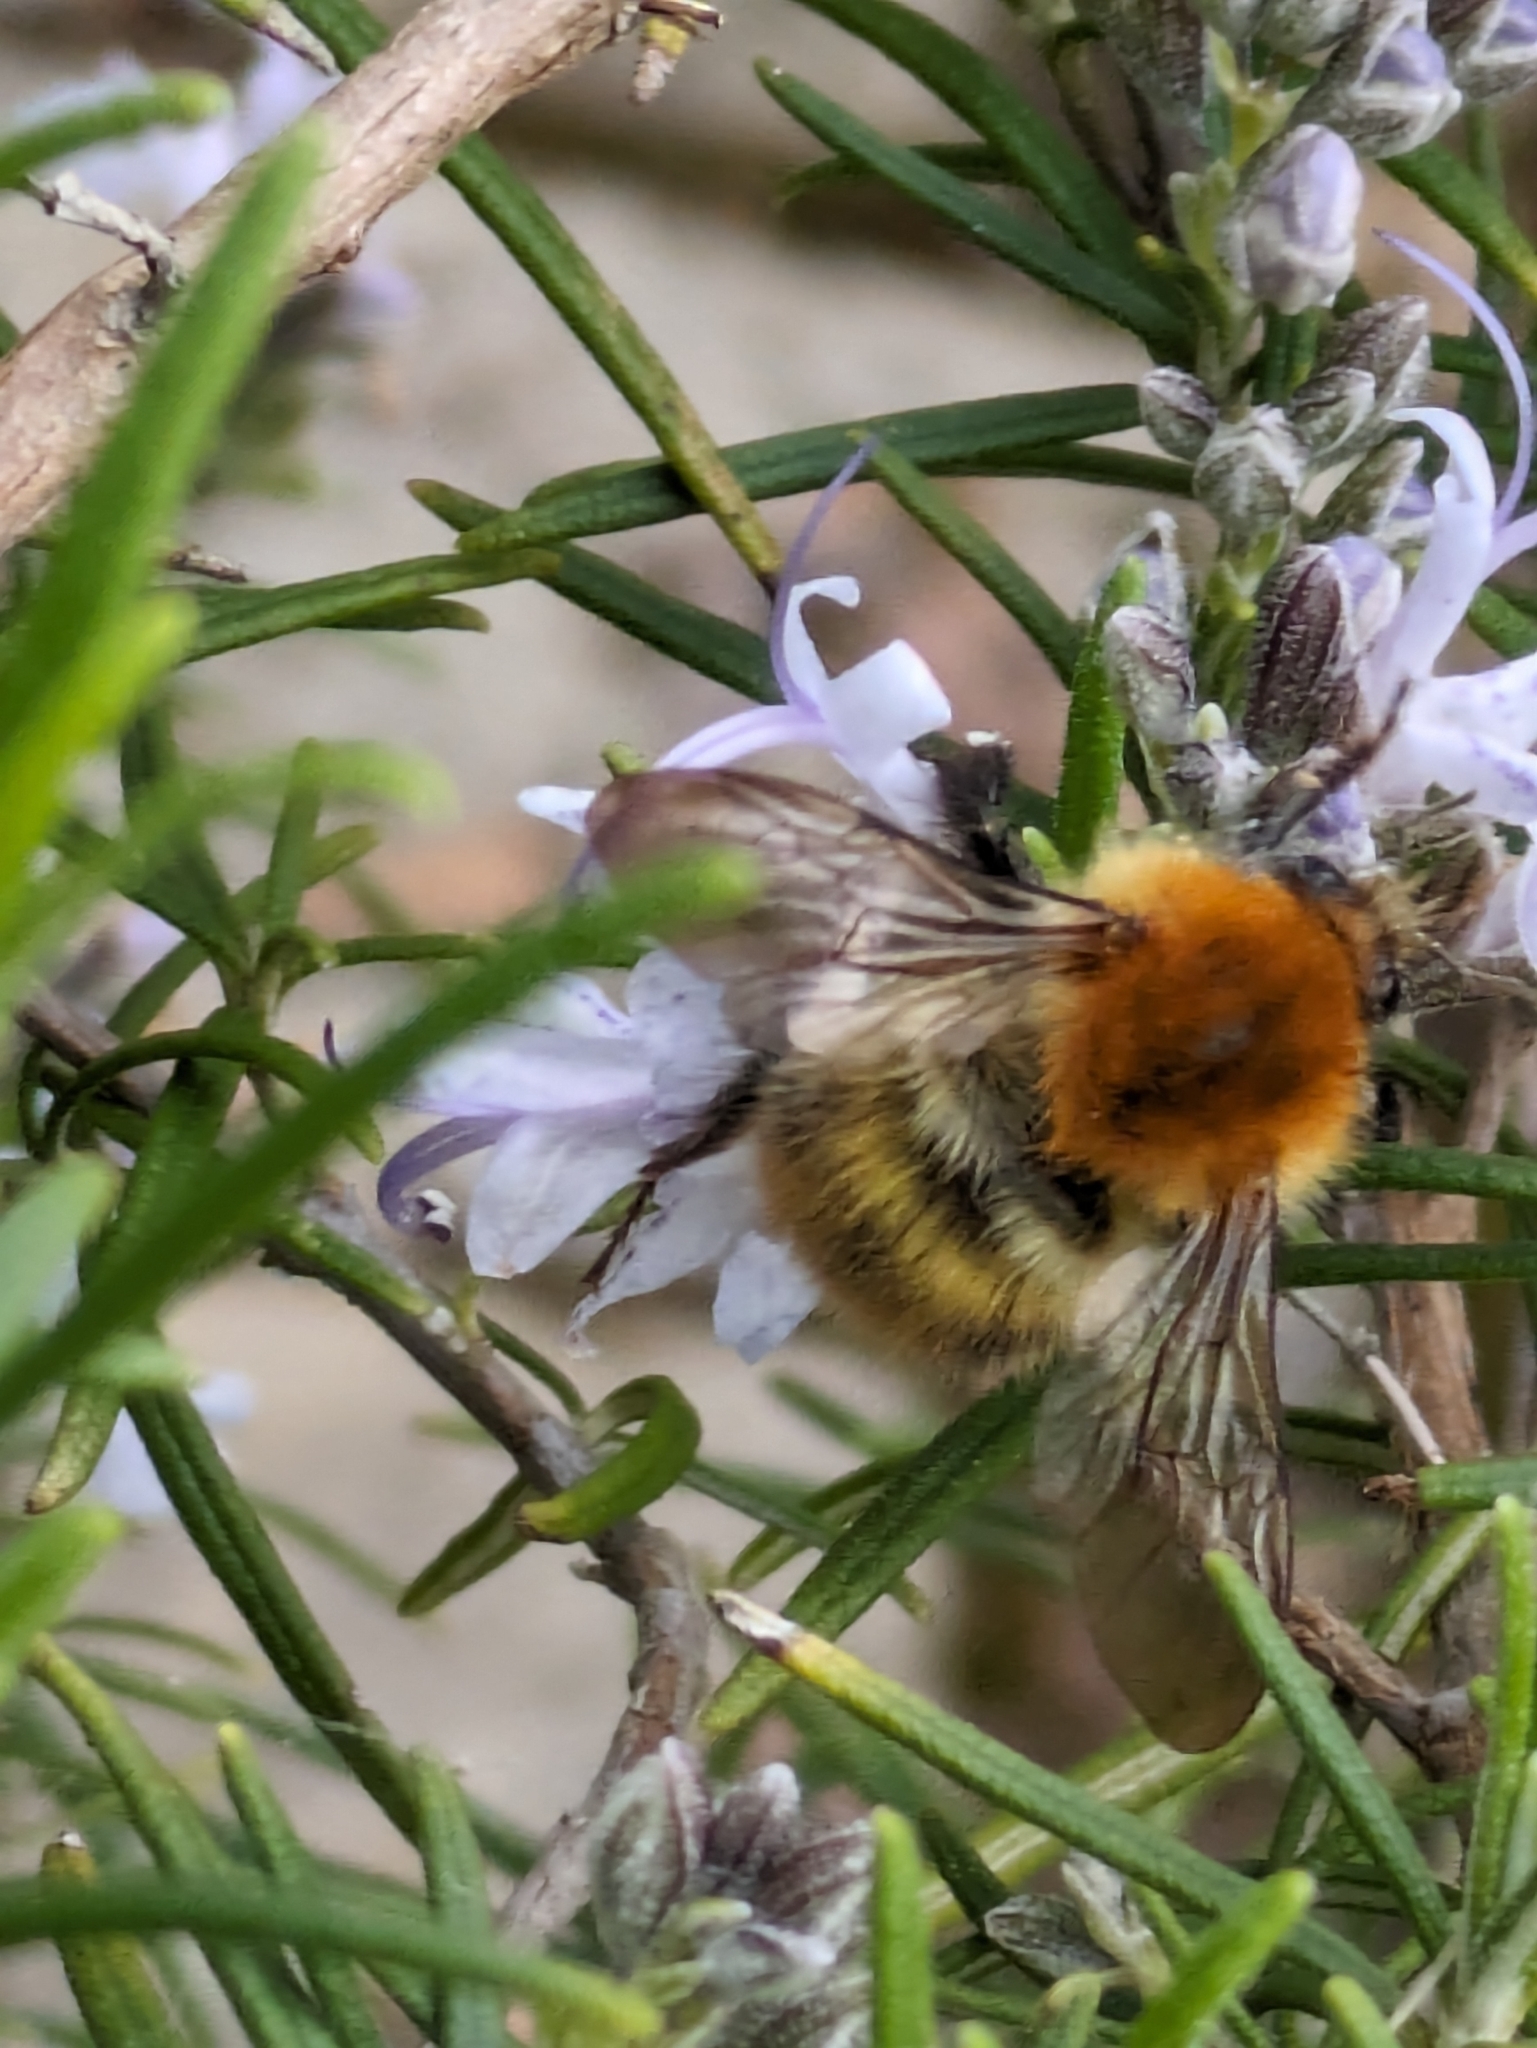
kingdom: Animalia
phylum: Arthropoda
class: Insecta
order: Hymenoptera
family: Apidae
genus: Bombus
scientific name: Bombus pascuorum
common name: Common carder bee
